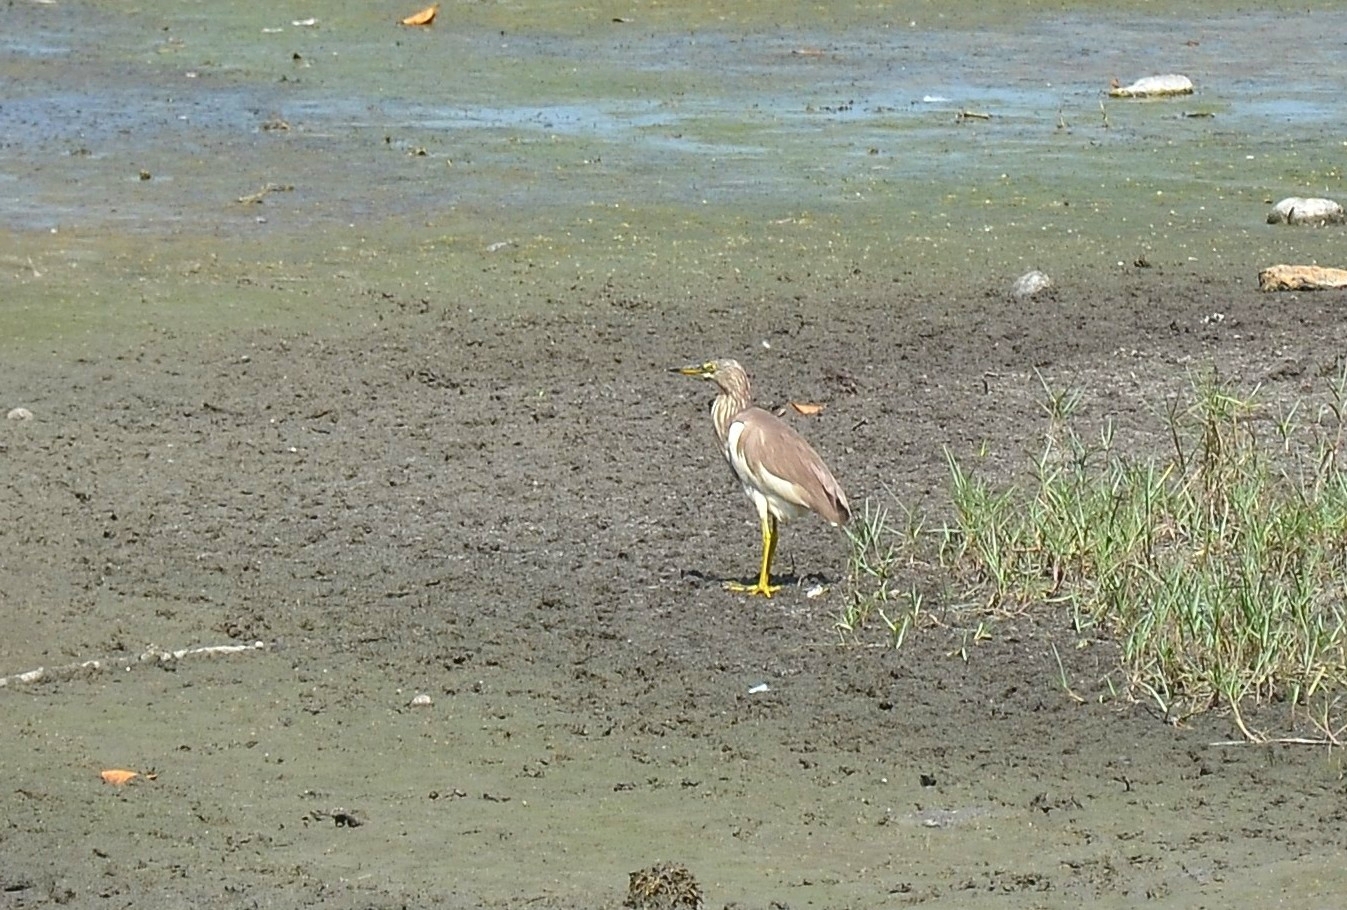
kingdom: Animalia
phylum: Chordata
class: Aves
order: Pelecaniformes
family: Ardeidae
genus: Ardeola
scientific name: Ardeola grayii
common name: Indian pond heron
